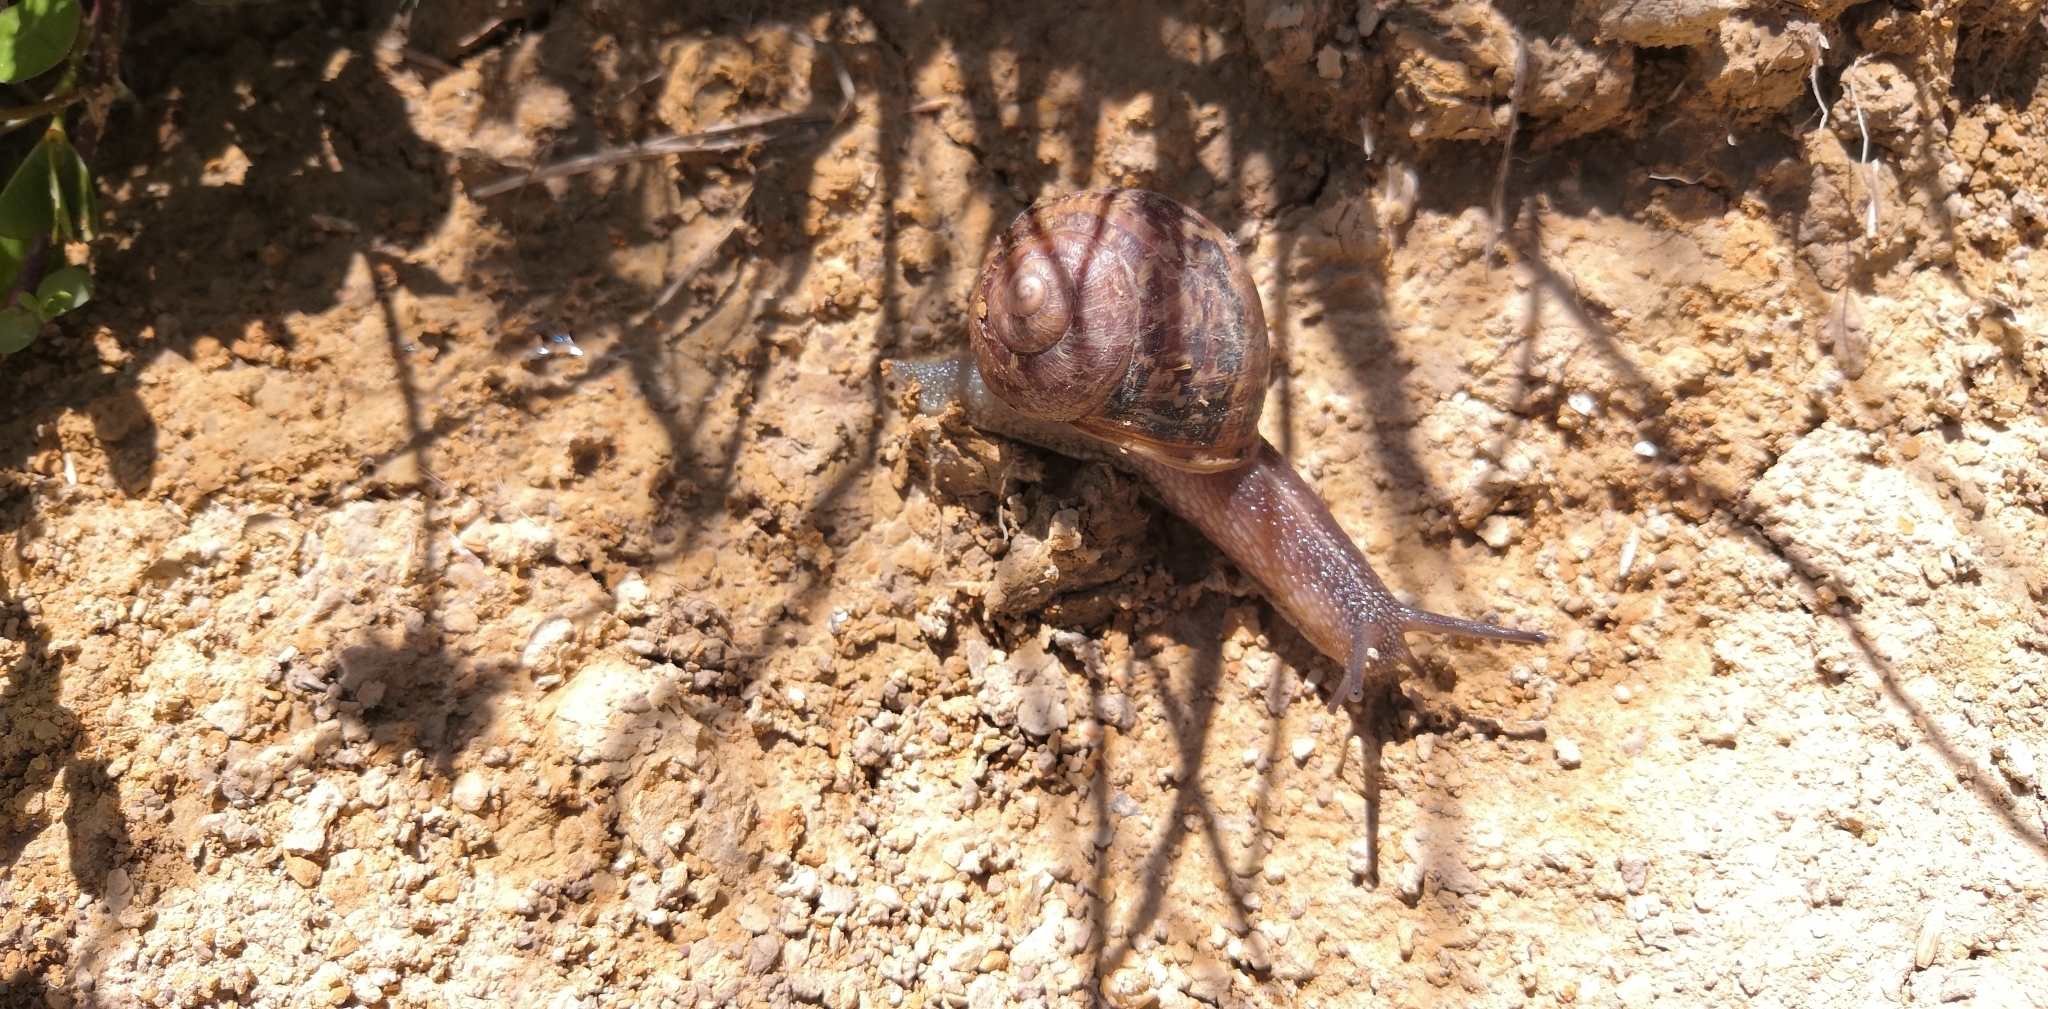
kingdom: Animalia
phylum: Mollusca
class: Gastropoda
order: Stylommatophora
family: Helicidae
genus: Cornu
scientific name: Cornu aspersum
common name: Brown garden snail
